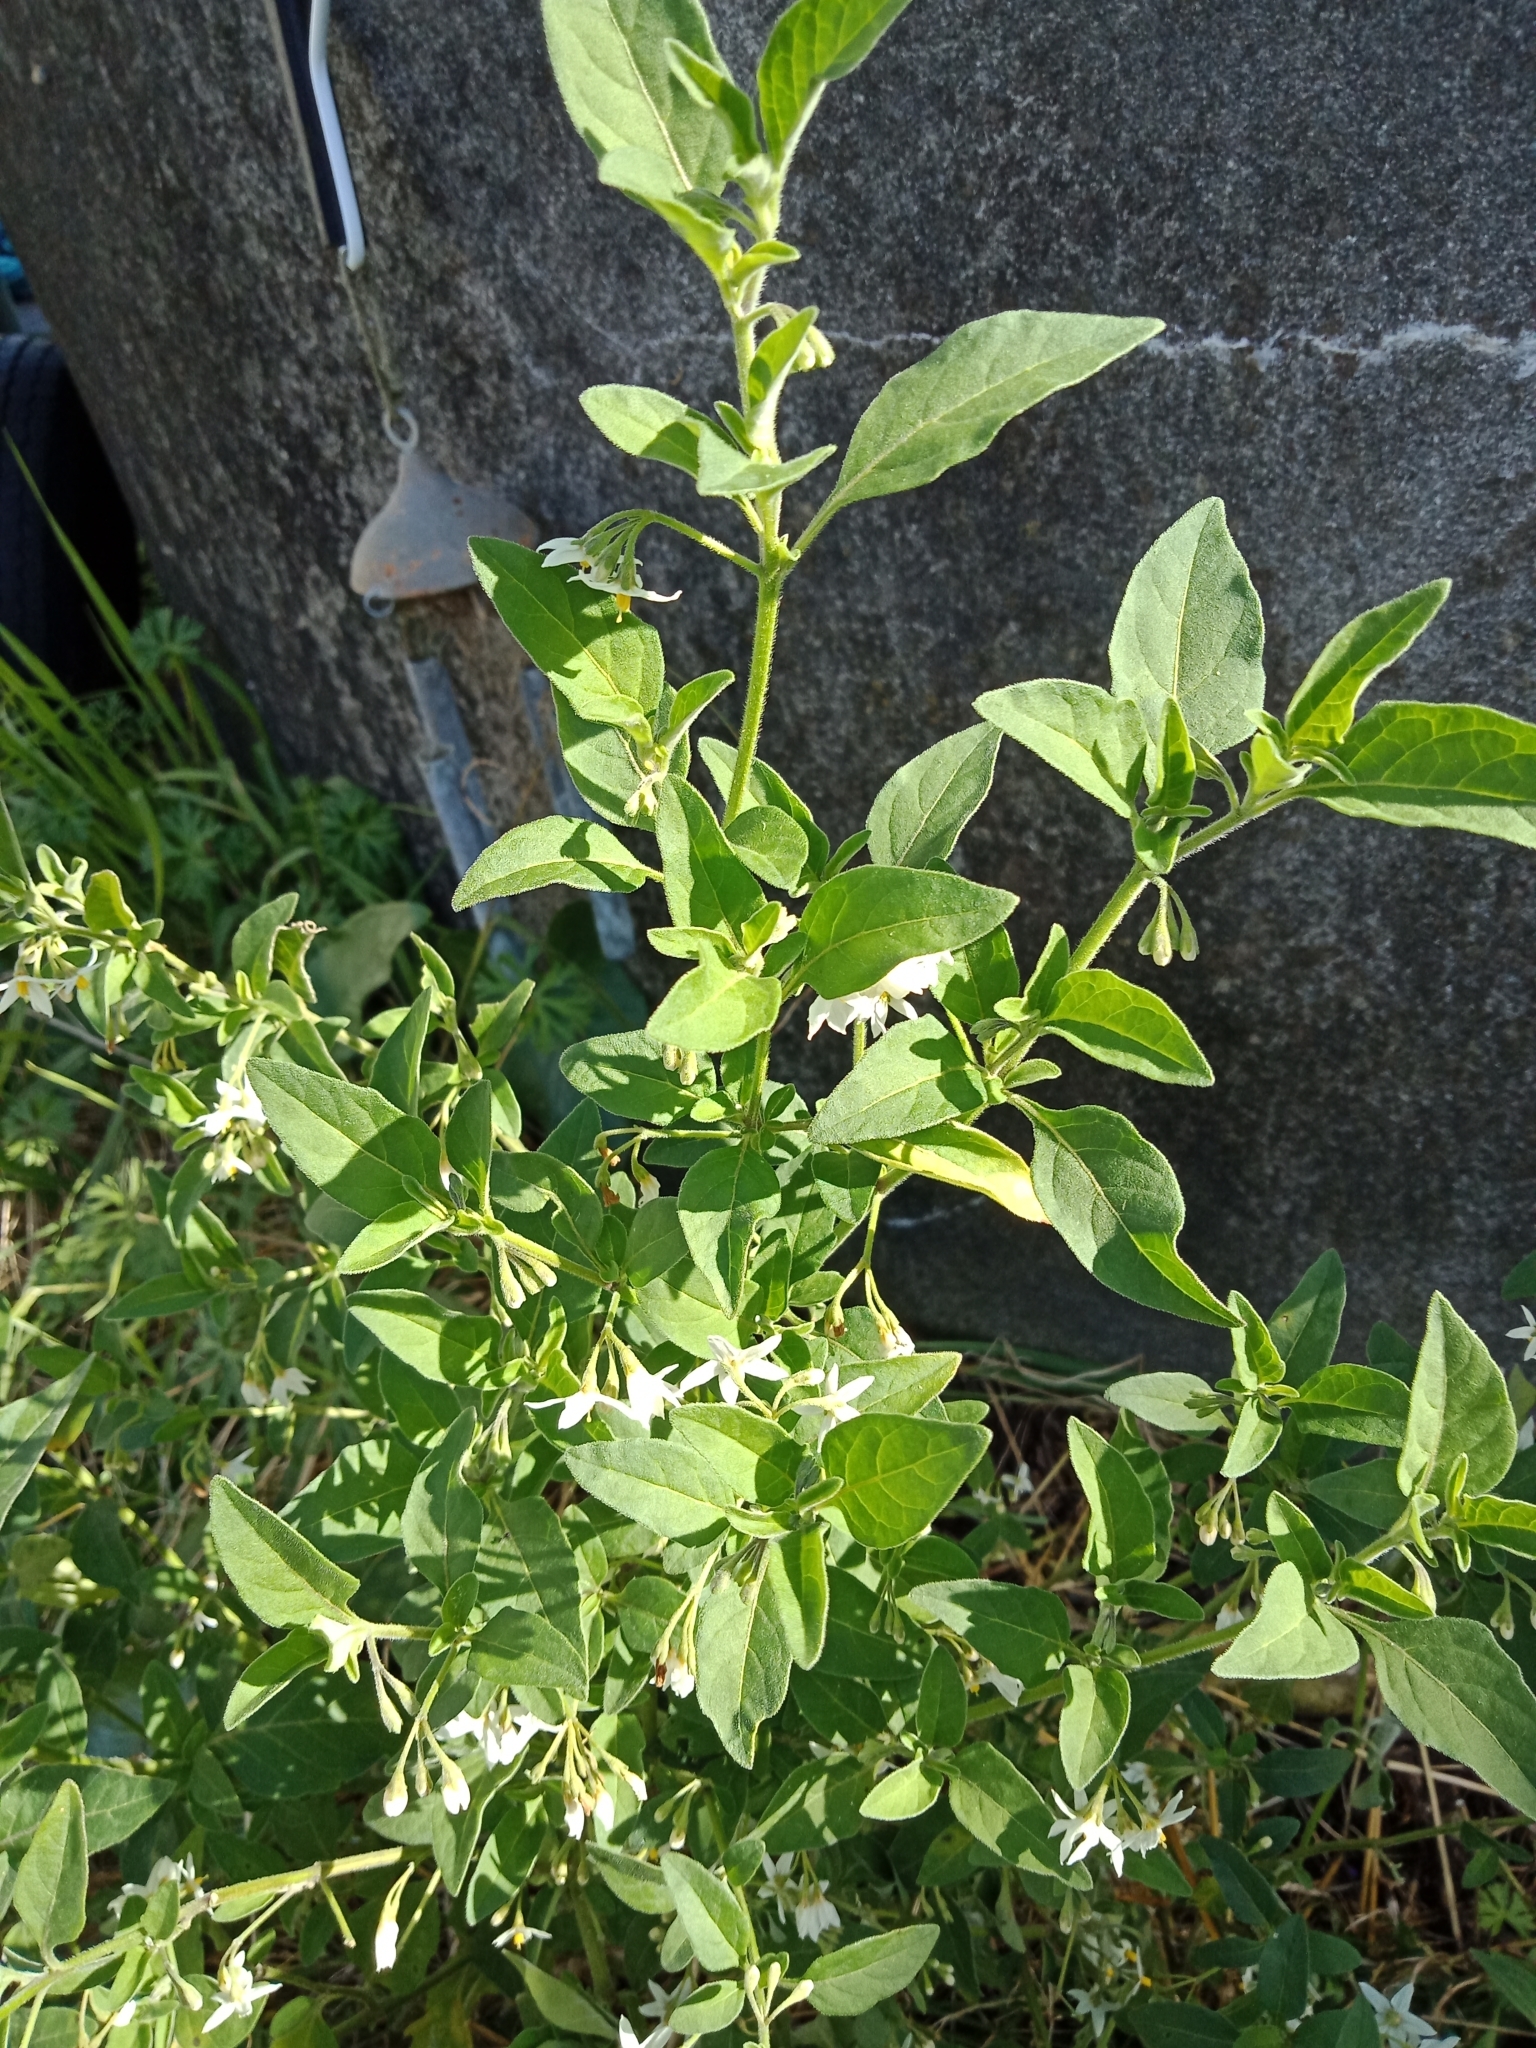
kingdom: Plantae
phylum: Tracheophyta
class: Magnoliopsida
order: Solanales
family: Solanaceae
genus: Solanum
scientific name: Solanum chenopodioides
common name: Tall nightshade
